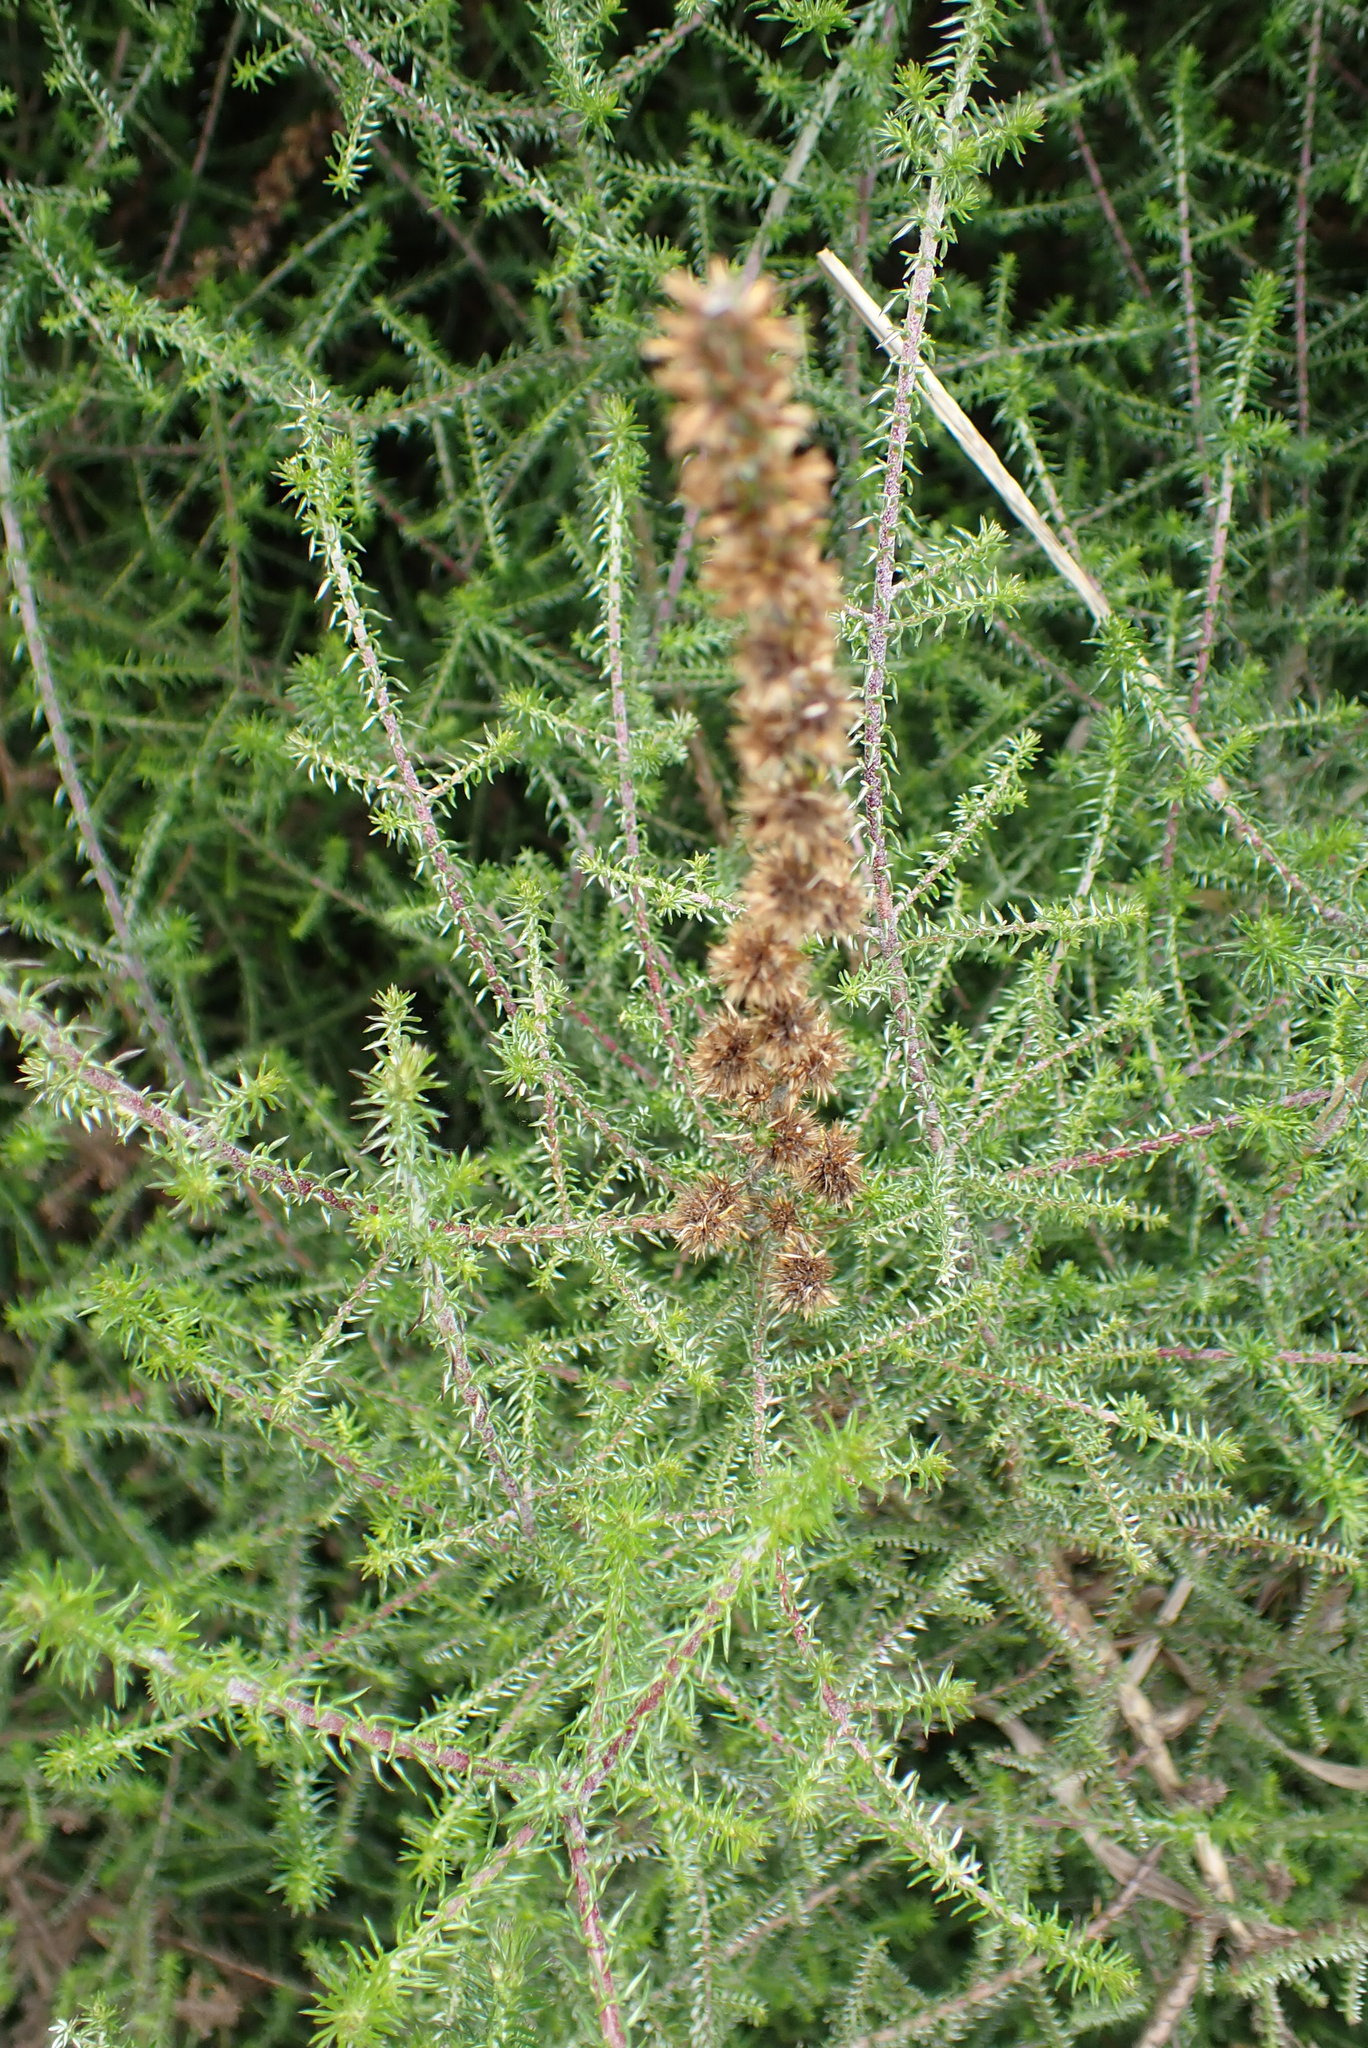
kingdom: Plantae
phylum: Tracheophyta
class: Magnoliopsida
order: Asterales
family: Asteraceae
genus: Seriphium
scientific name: Seriphium plumosum
